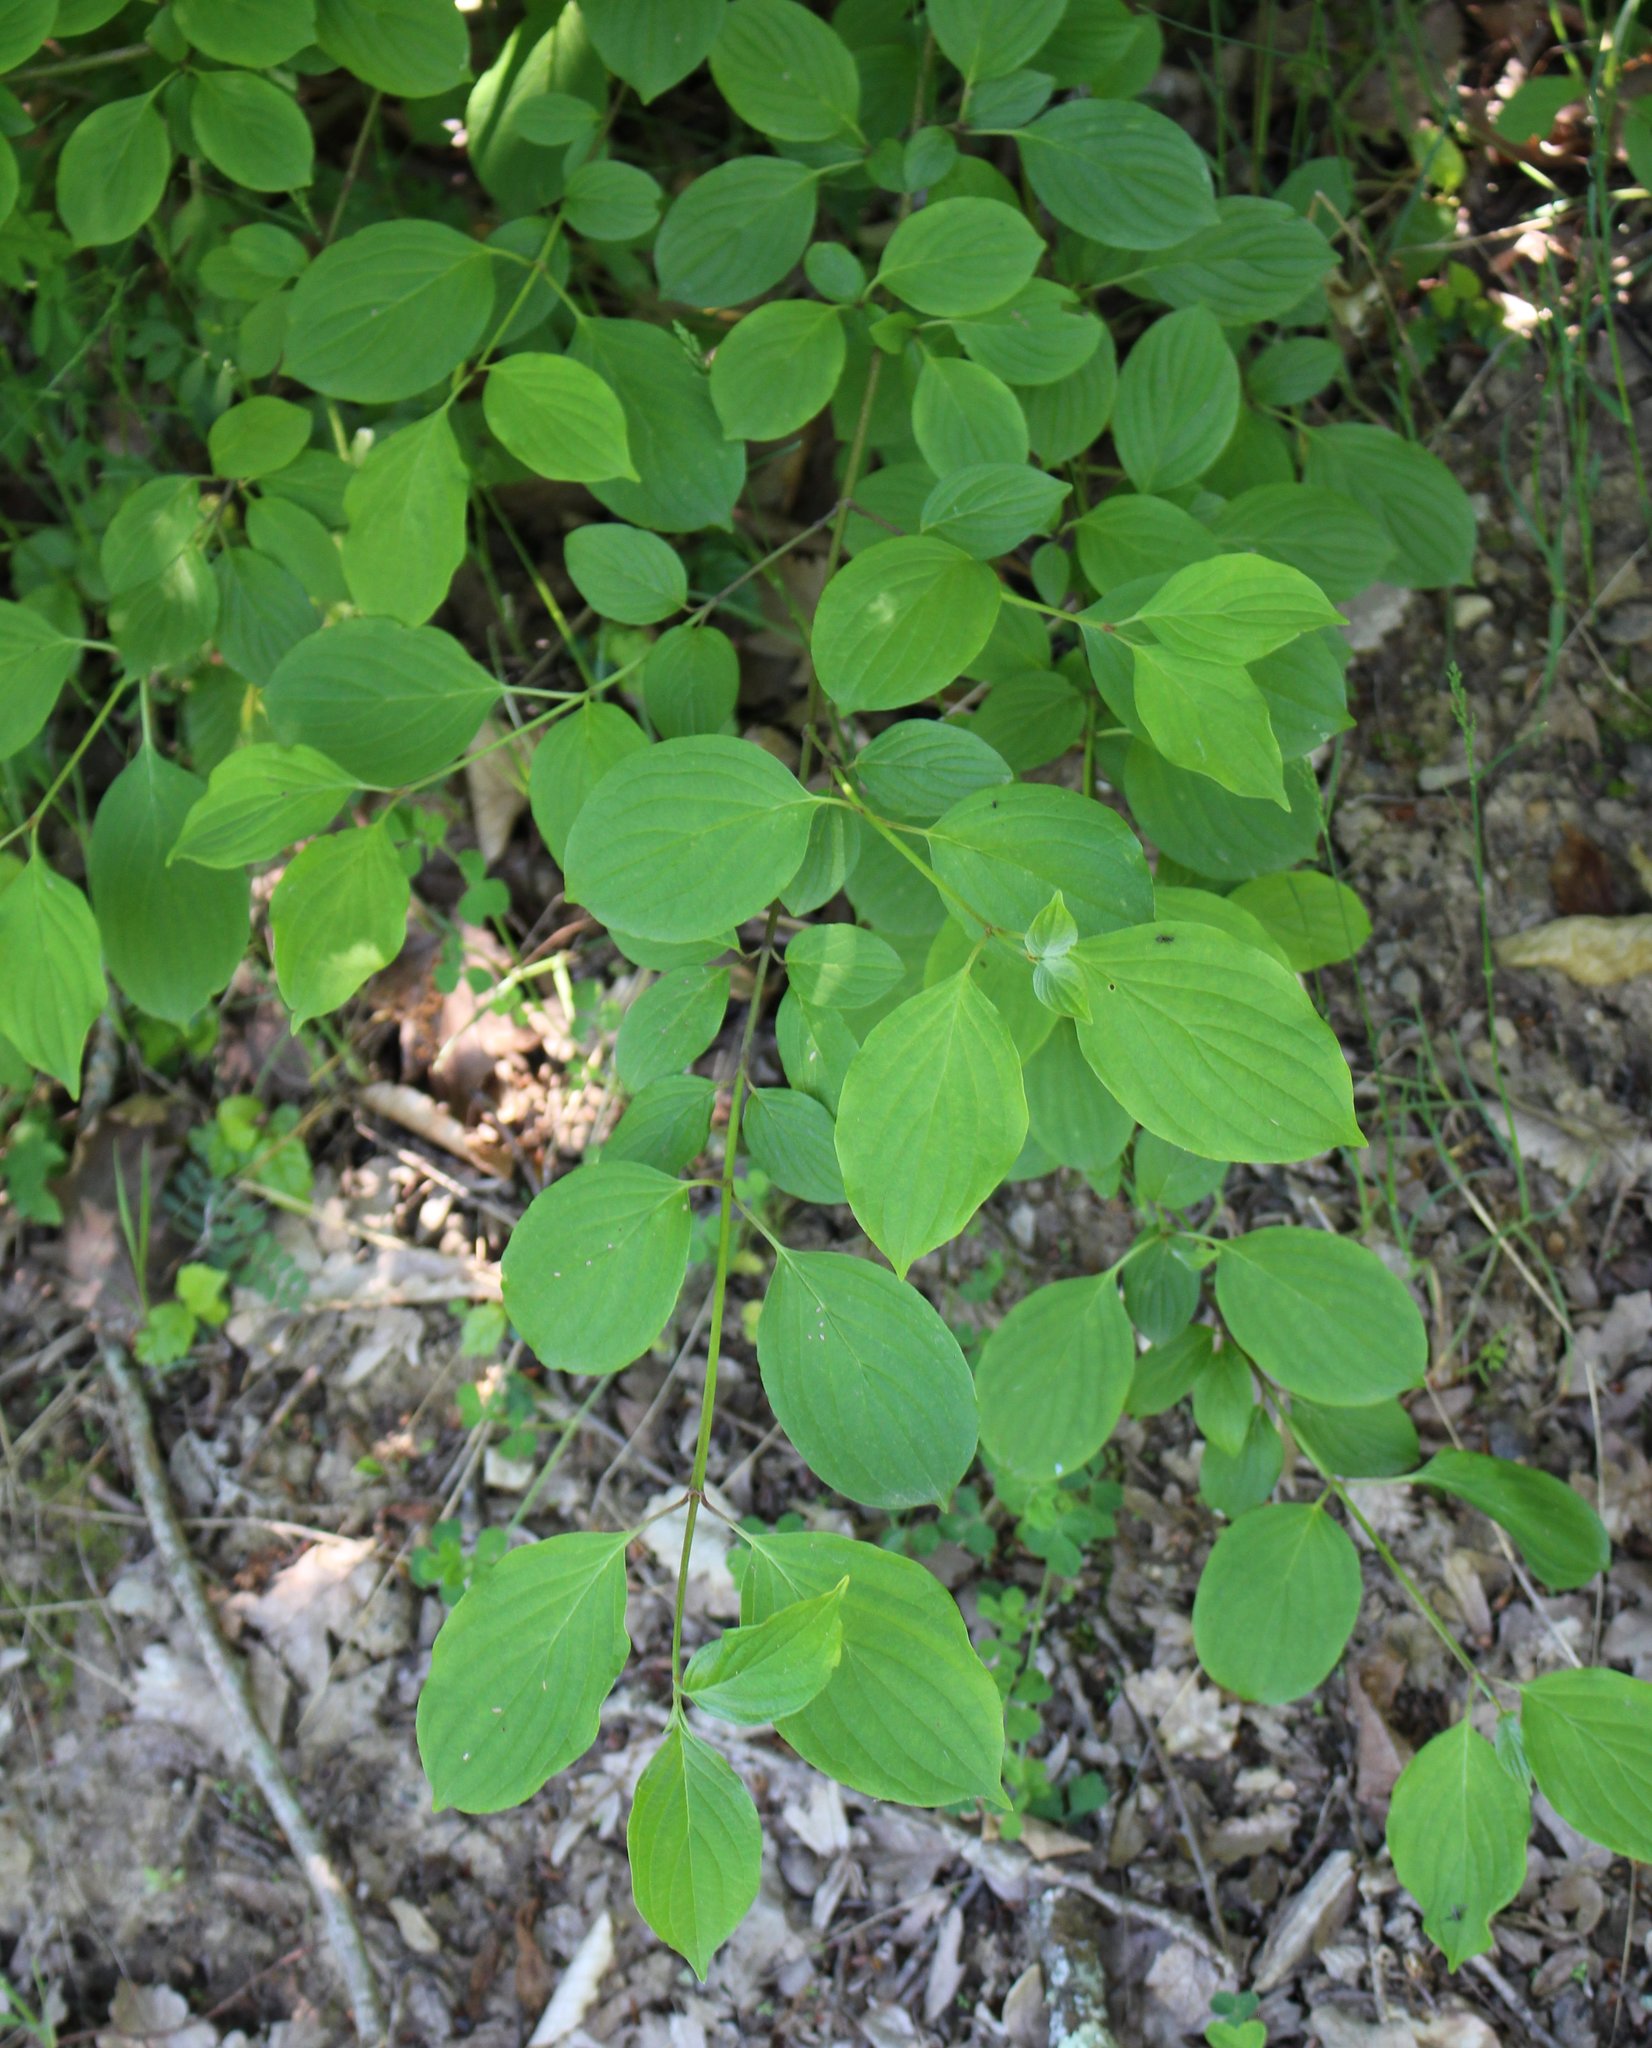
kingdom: Plantae
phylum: Tracheophyta
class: Magnoliopsida
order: Cornales
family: Cornaceae
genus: Cornus
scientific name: Cornus sanguinea
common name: Dogwood
